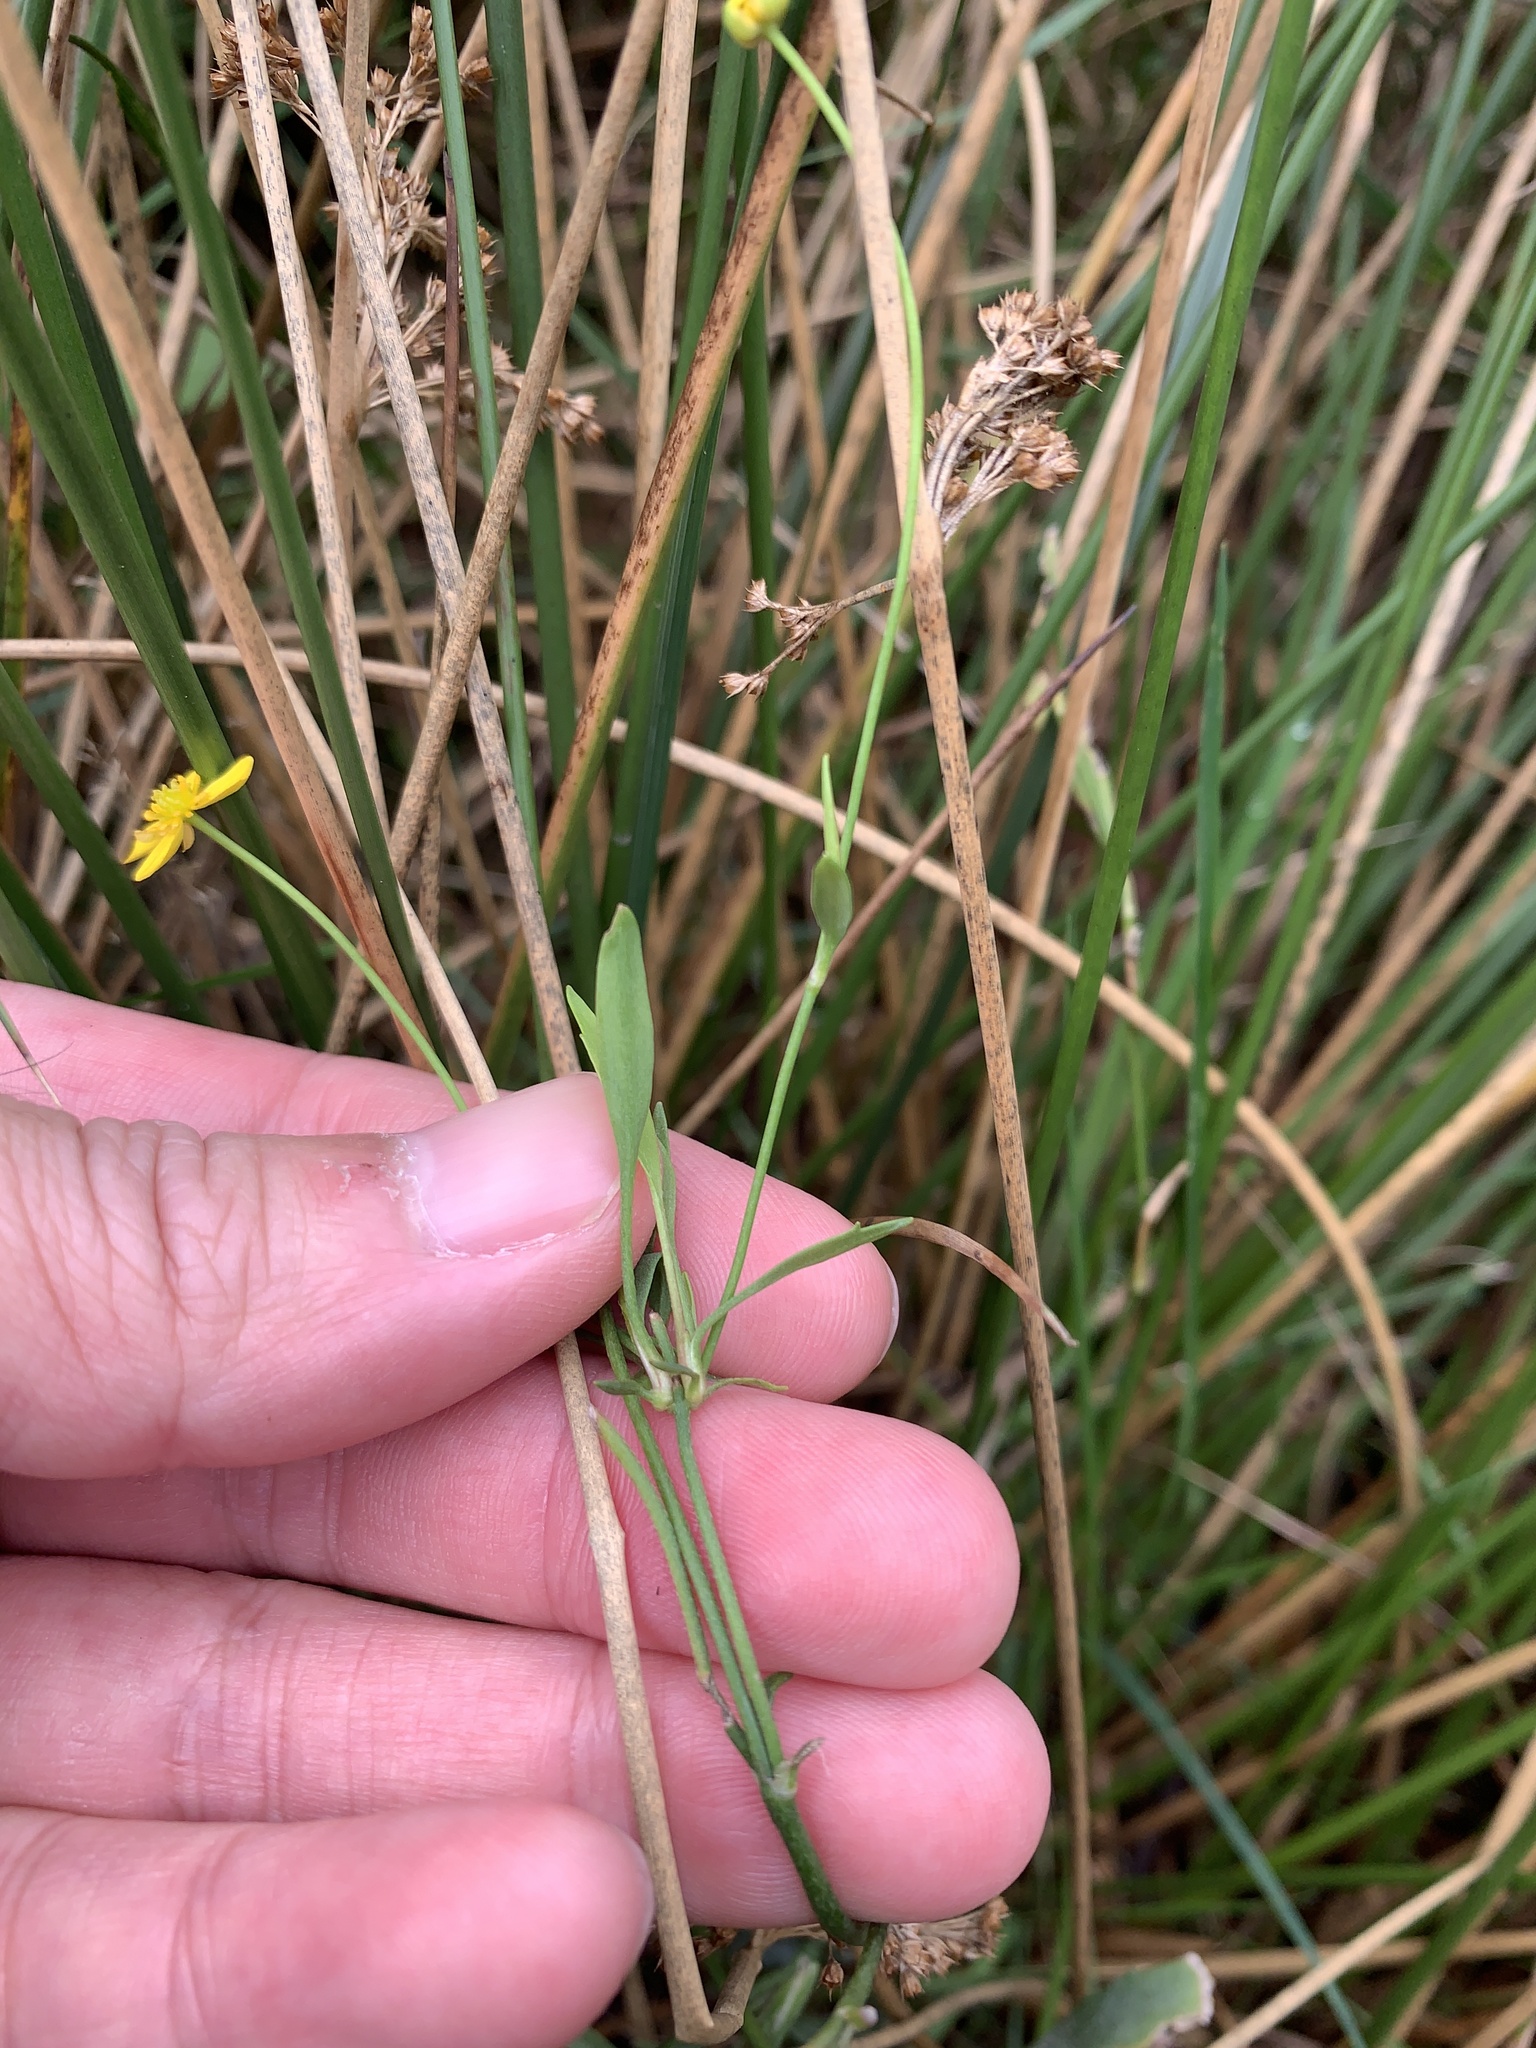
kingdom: Plantae
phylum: Tracheophyta
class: Magnoliopsida
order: Ranunculales
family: Ranunculaceae
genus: Ranunculus
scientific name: Ranunculus flammula
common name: Lesser spearwort
